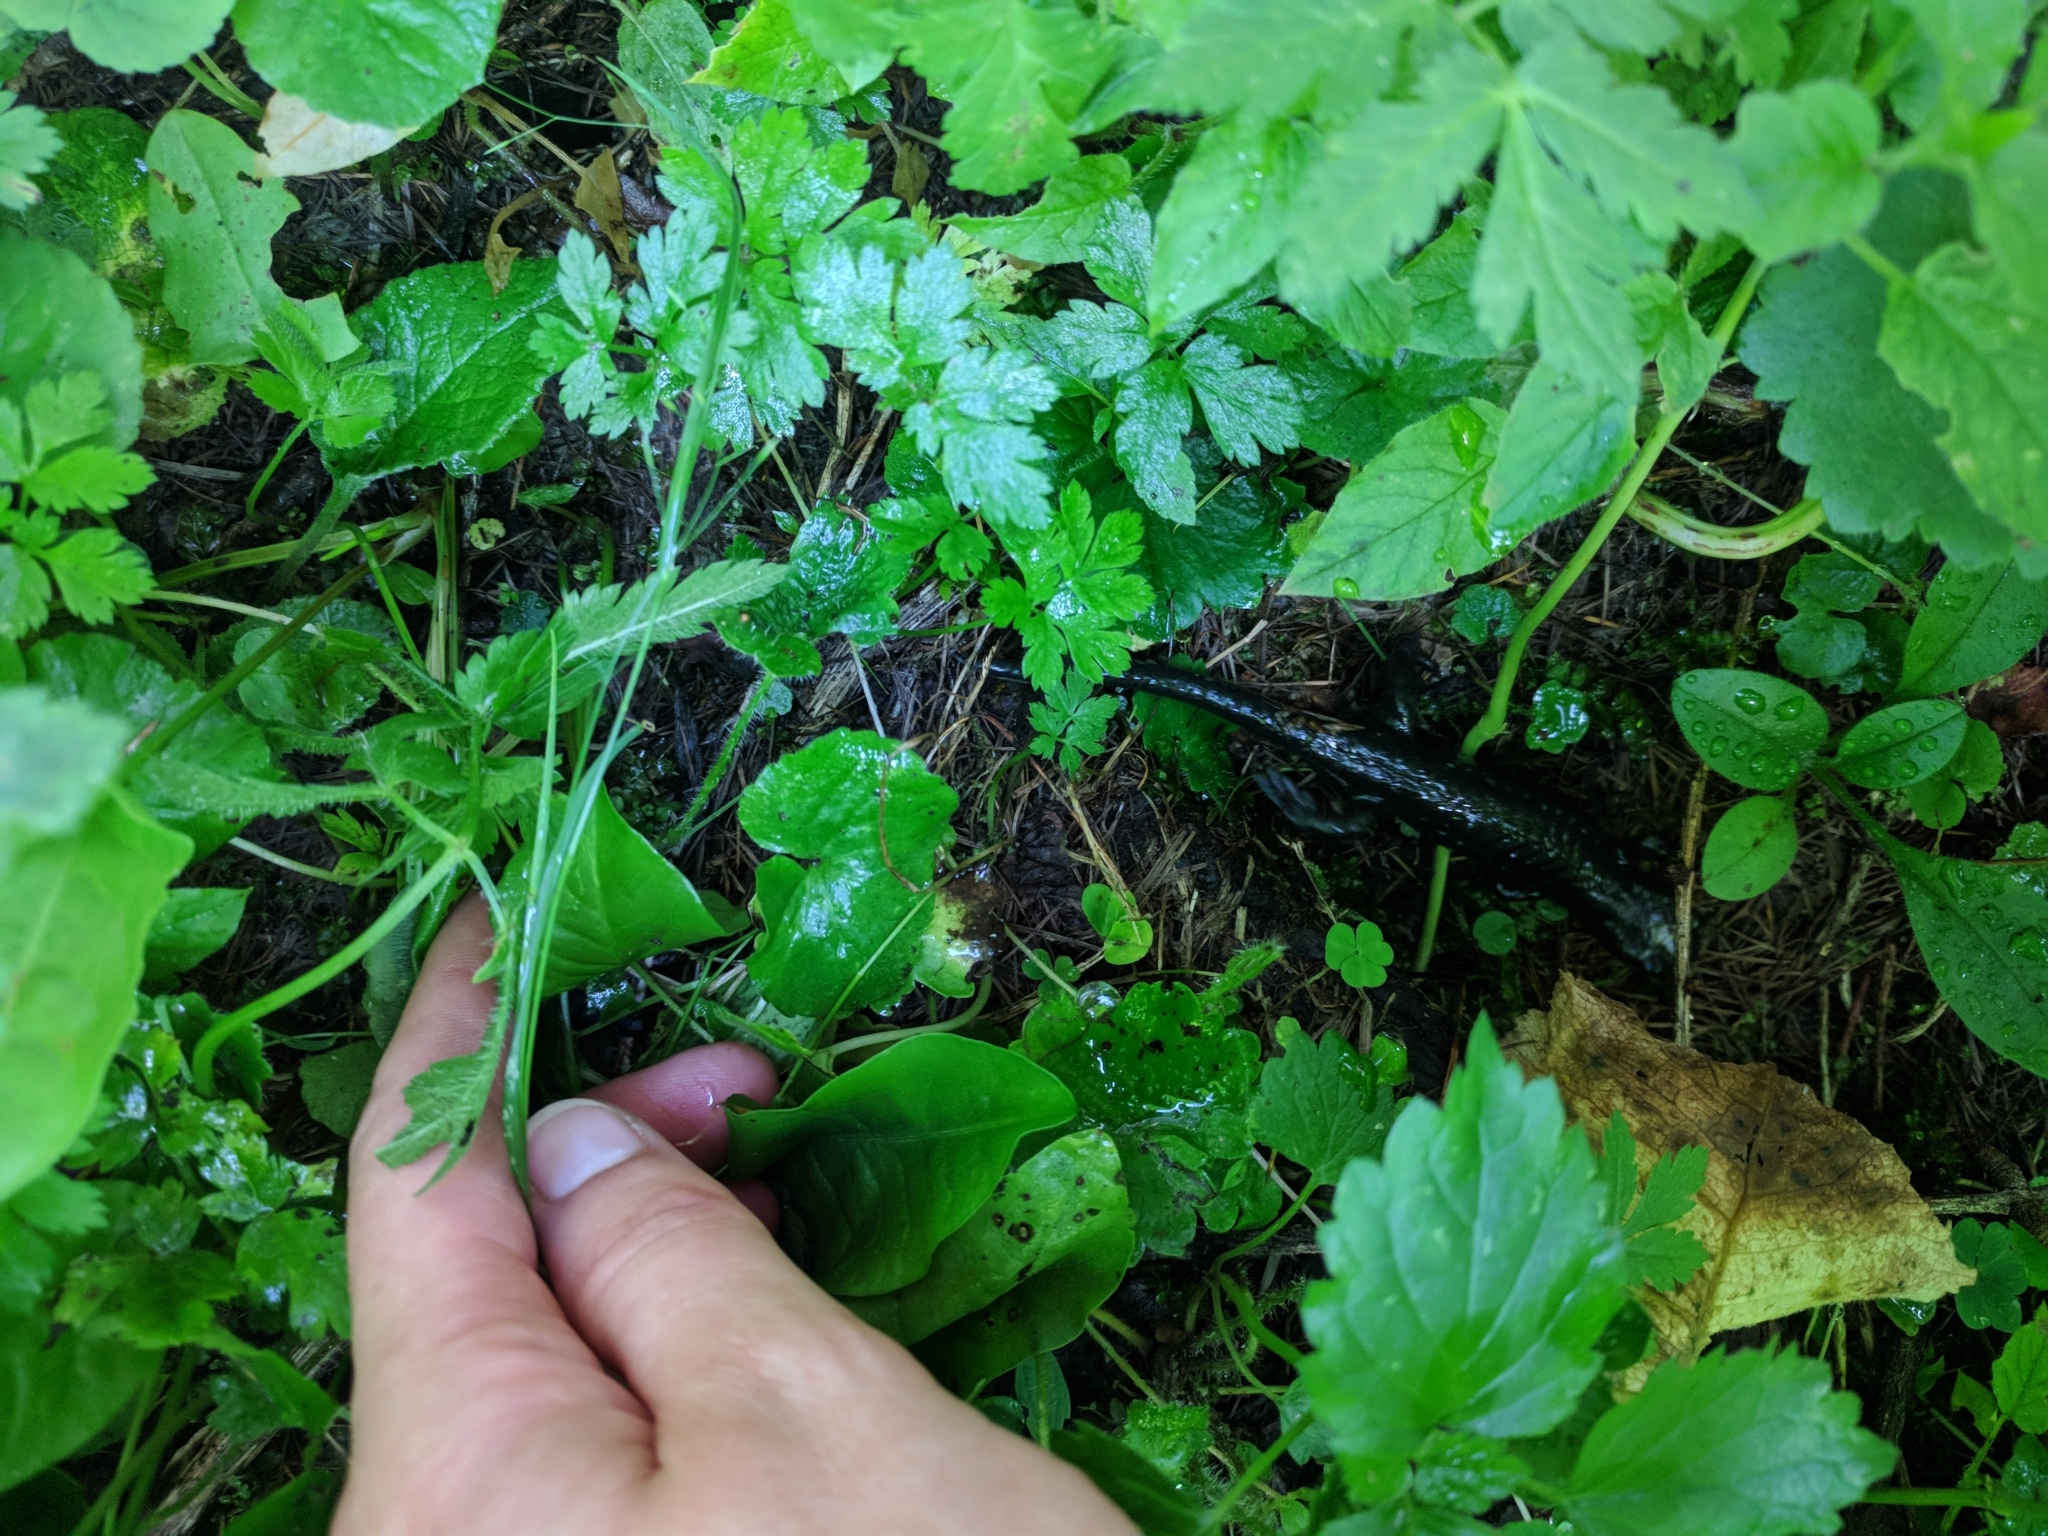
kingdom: Animalia
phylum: Chordata
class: Amphibia
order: Caudata
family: Salamandridae
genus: Salamandra
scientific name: Salamandra atra
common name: Alpine salamander
